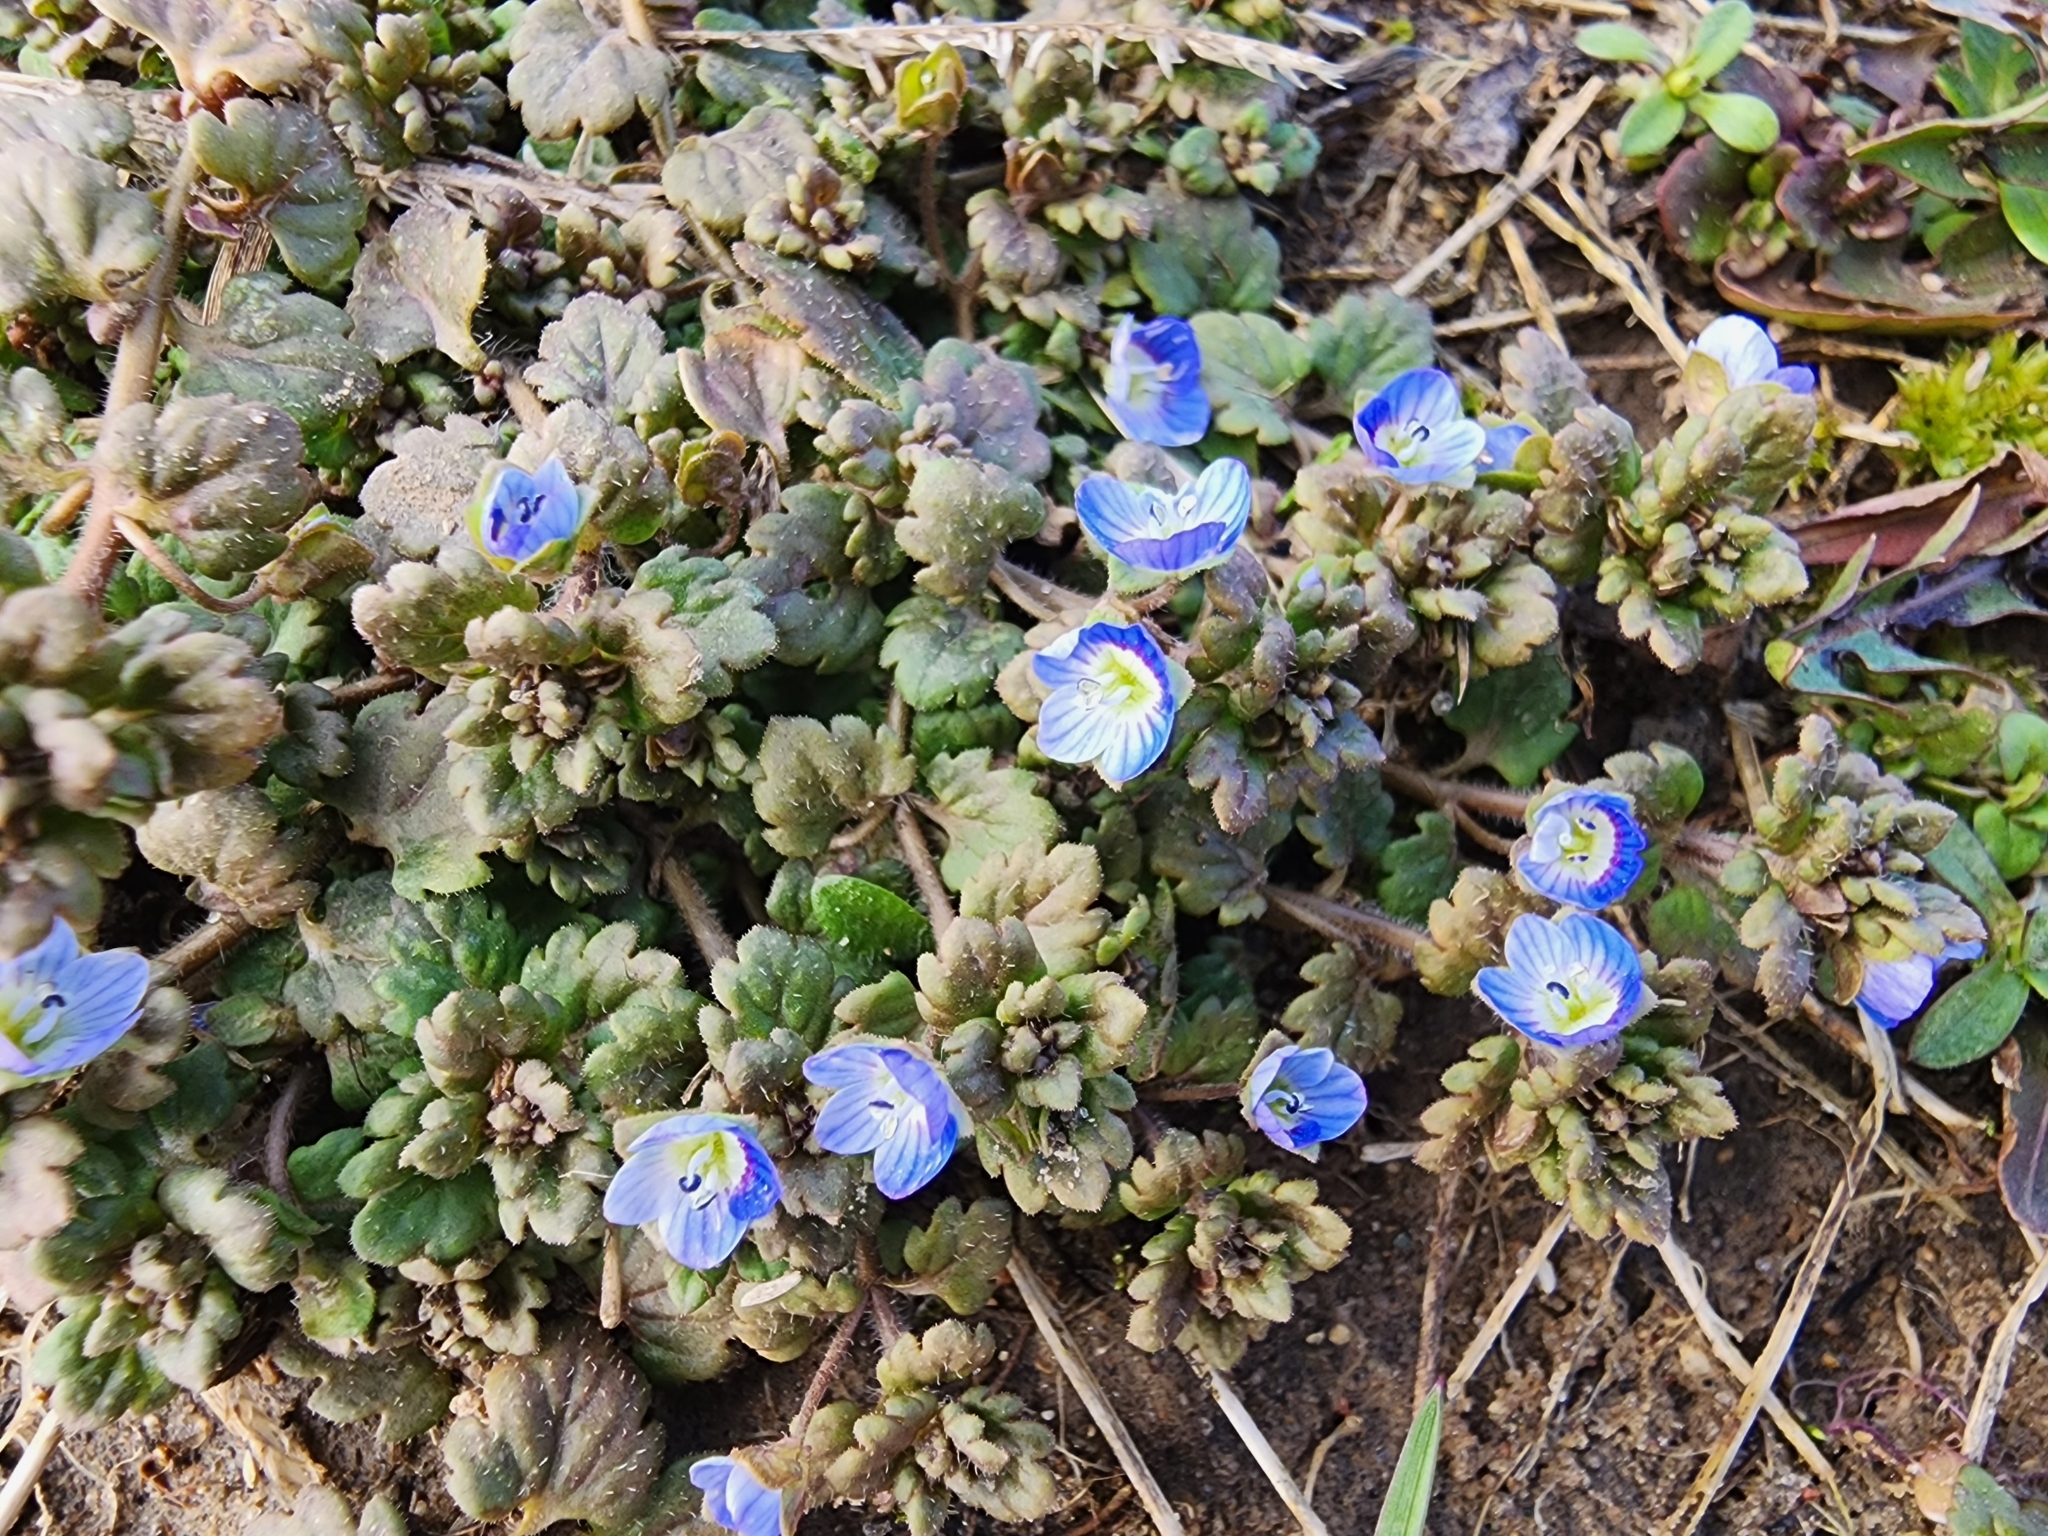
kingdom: Plantae
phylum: Tracheophyta
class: Magnoliopsida
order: Lamiales
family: Plantaginaceae
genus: Veronica
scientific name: Veronica polita
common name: Grey field-speedwell
